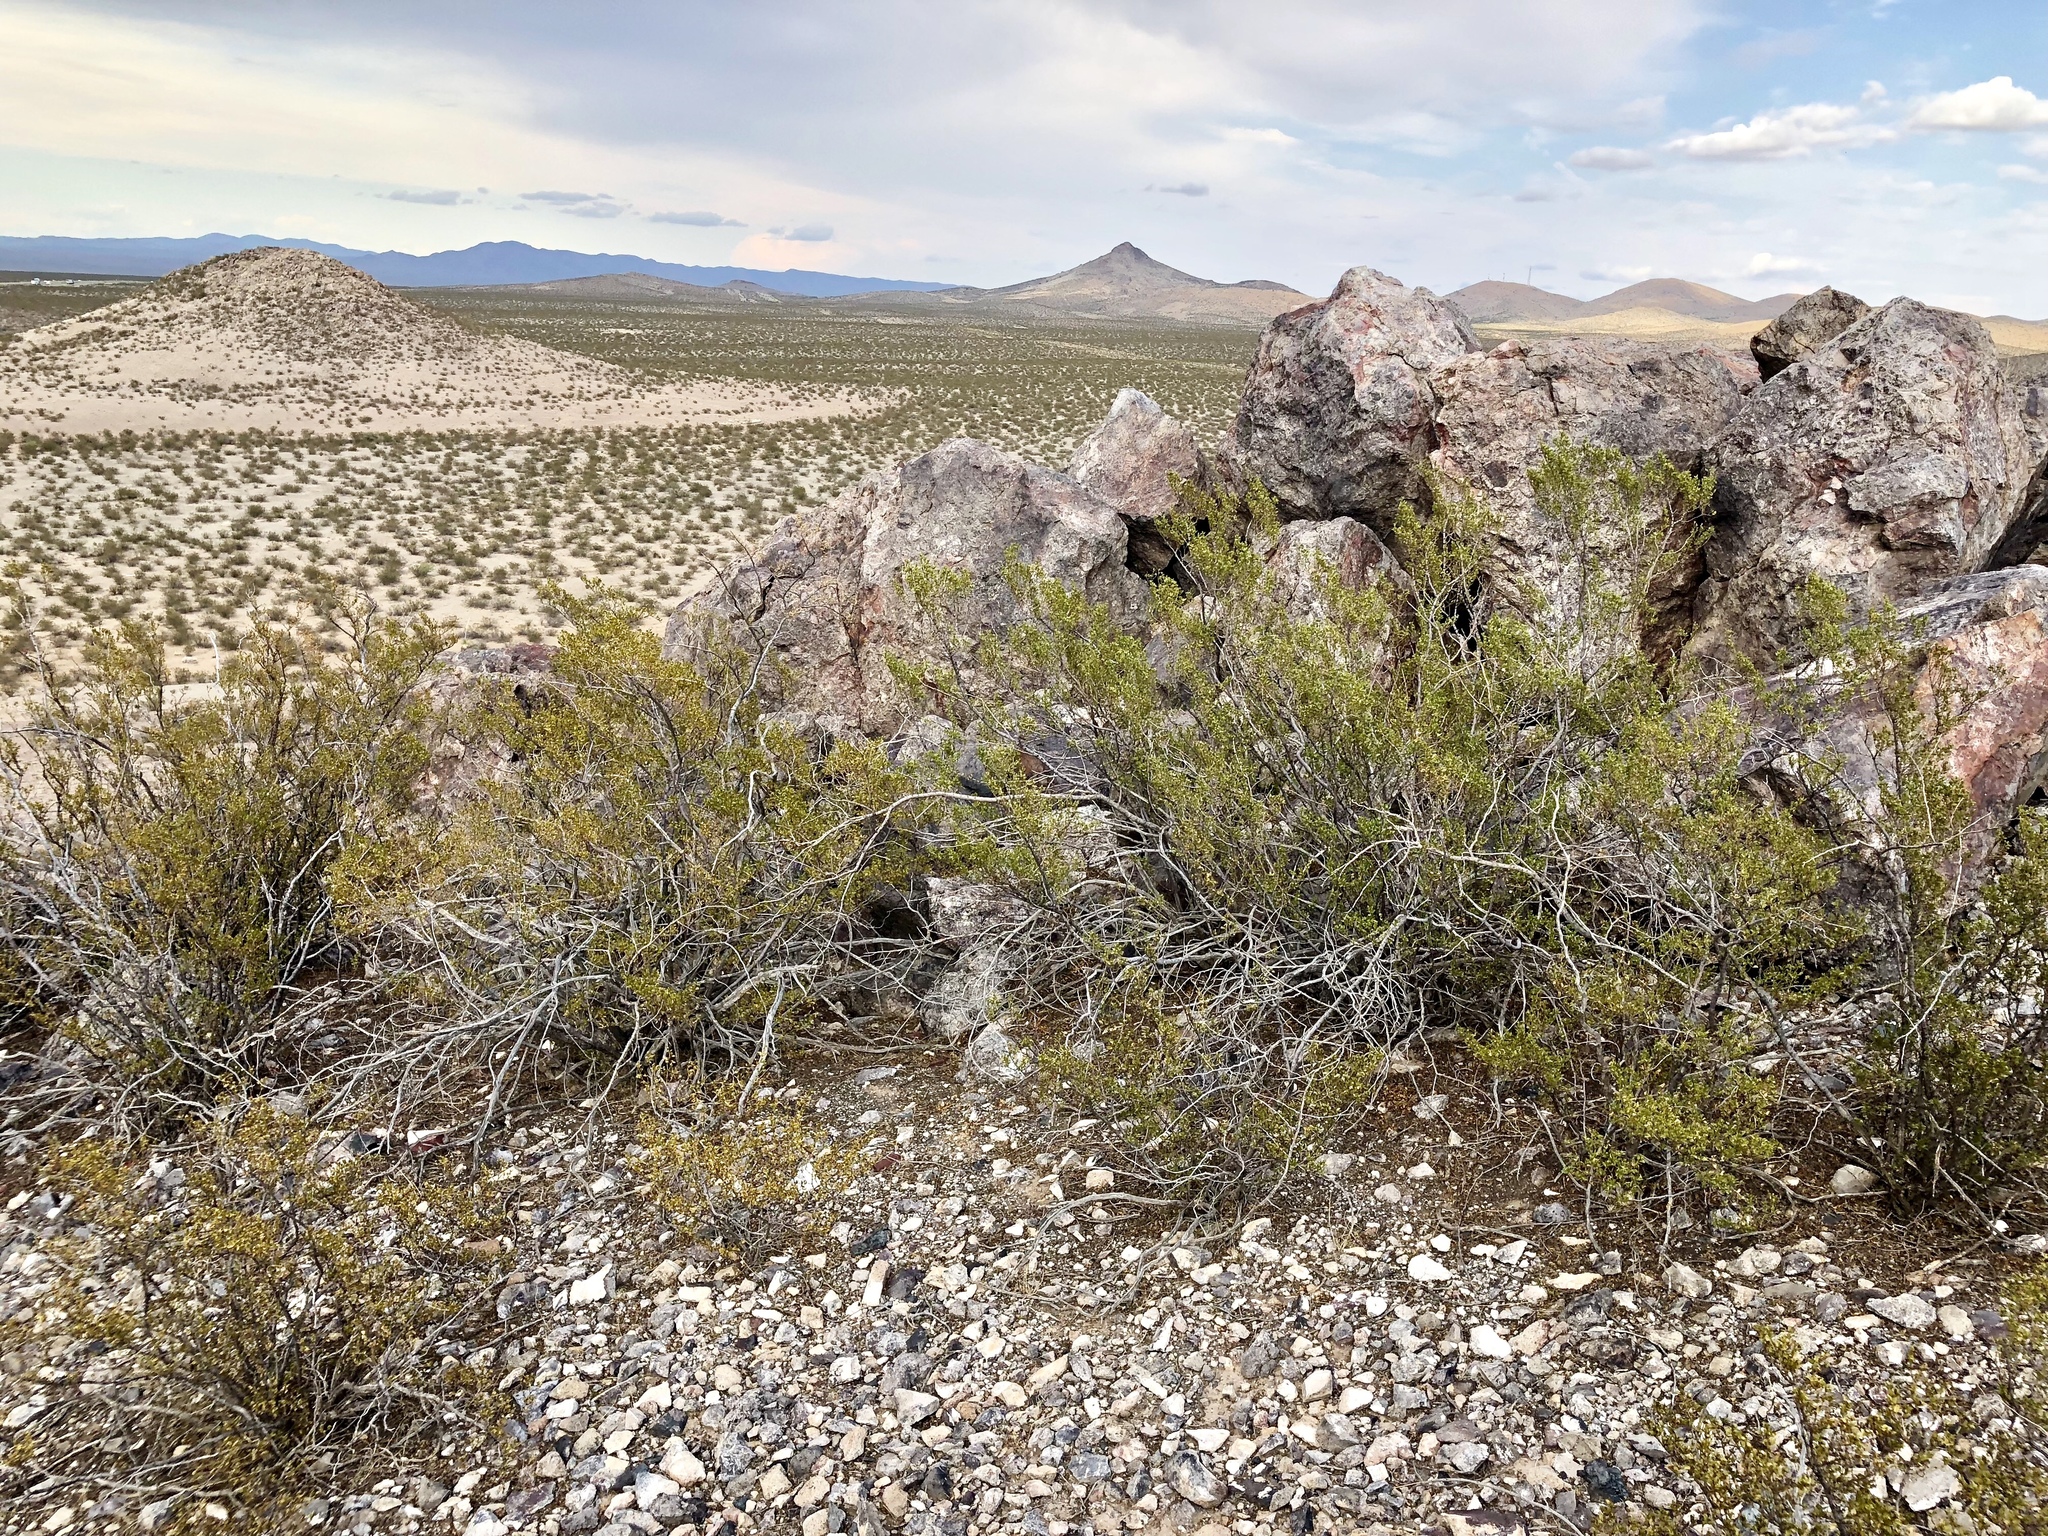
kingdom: Plantae
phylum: Tracheophyta
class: Magnoliopsida
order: Zygophyllales
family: Zygophyllaceae
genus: Larrea
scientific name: Larrea tridentata
